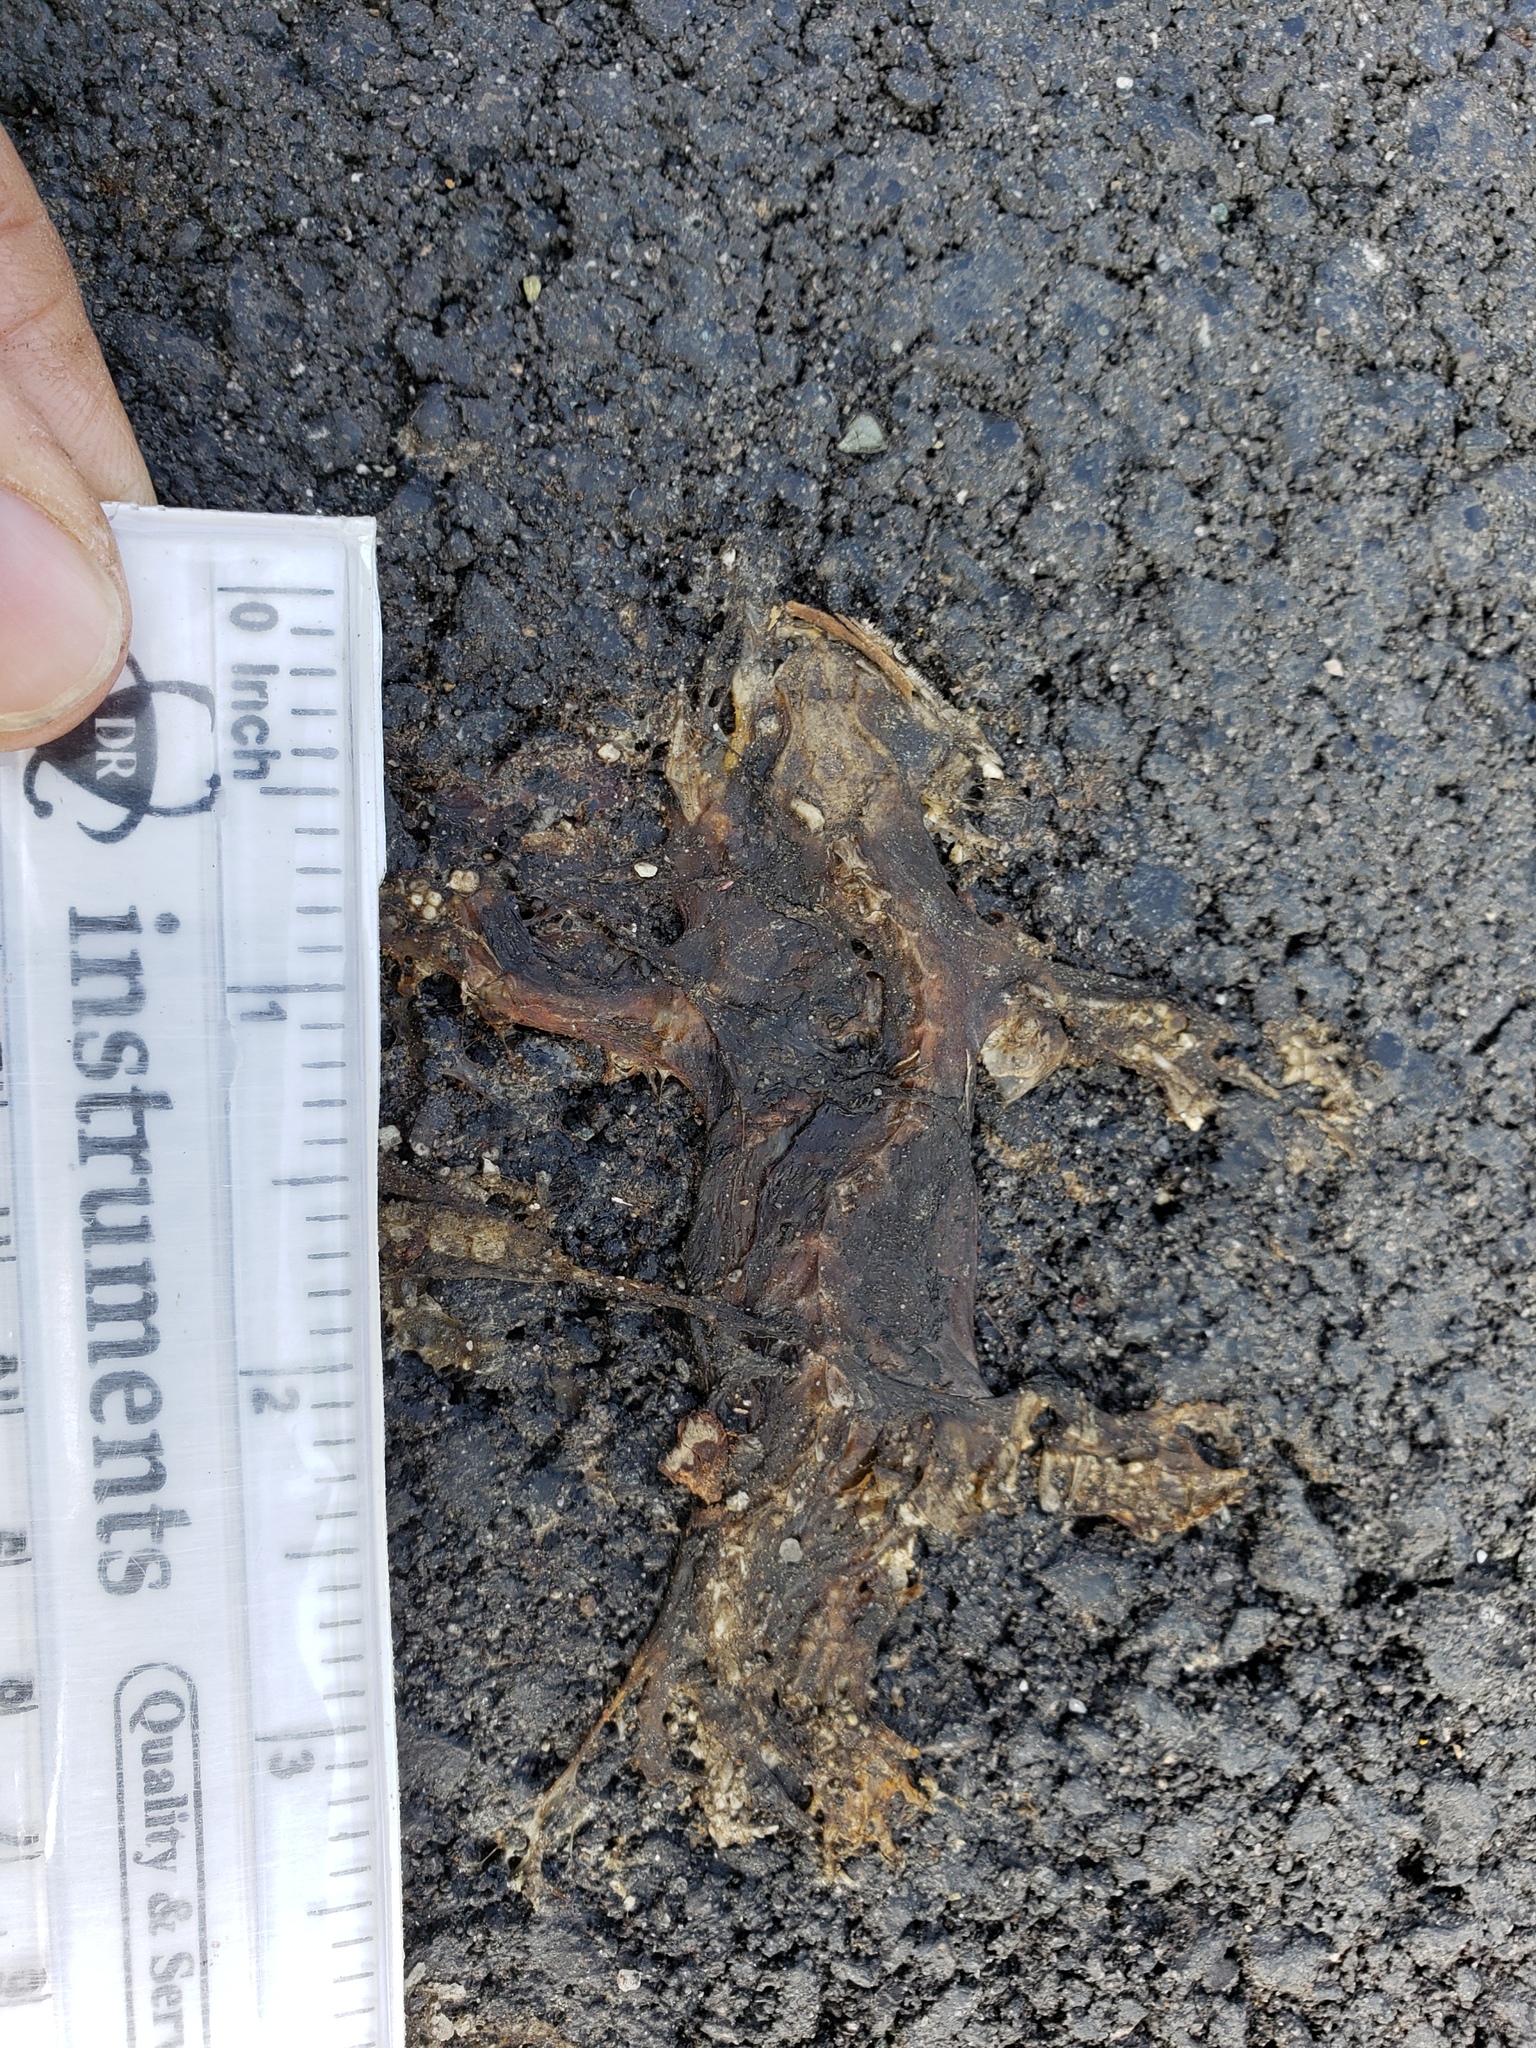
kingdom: Animalia
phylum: Chordata
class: Amphibia
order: Caudata
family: Salamandridae
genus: Taricha
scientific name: Taricha
